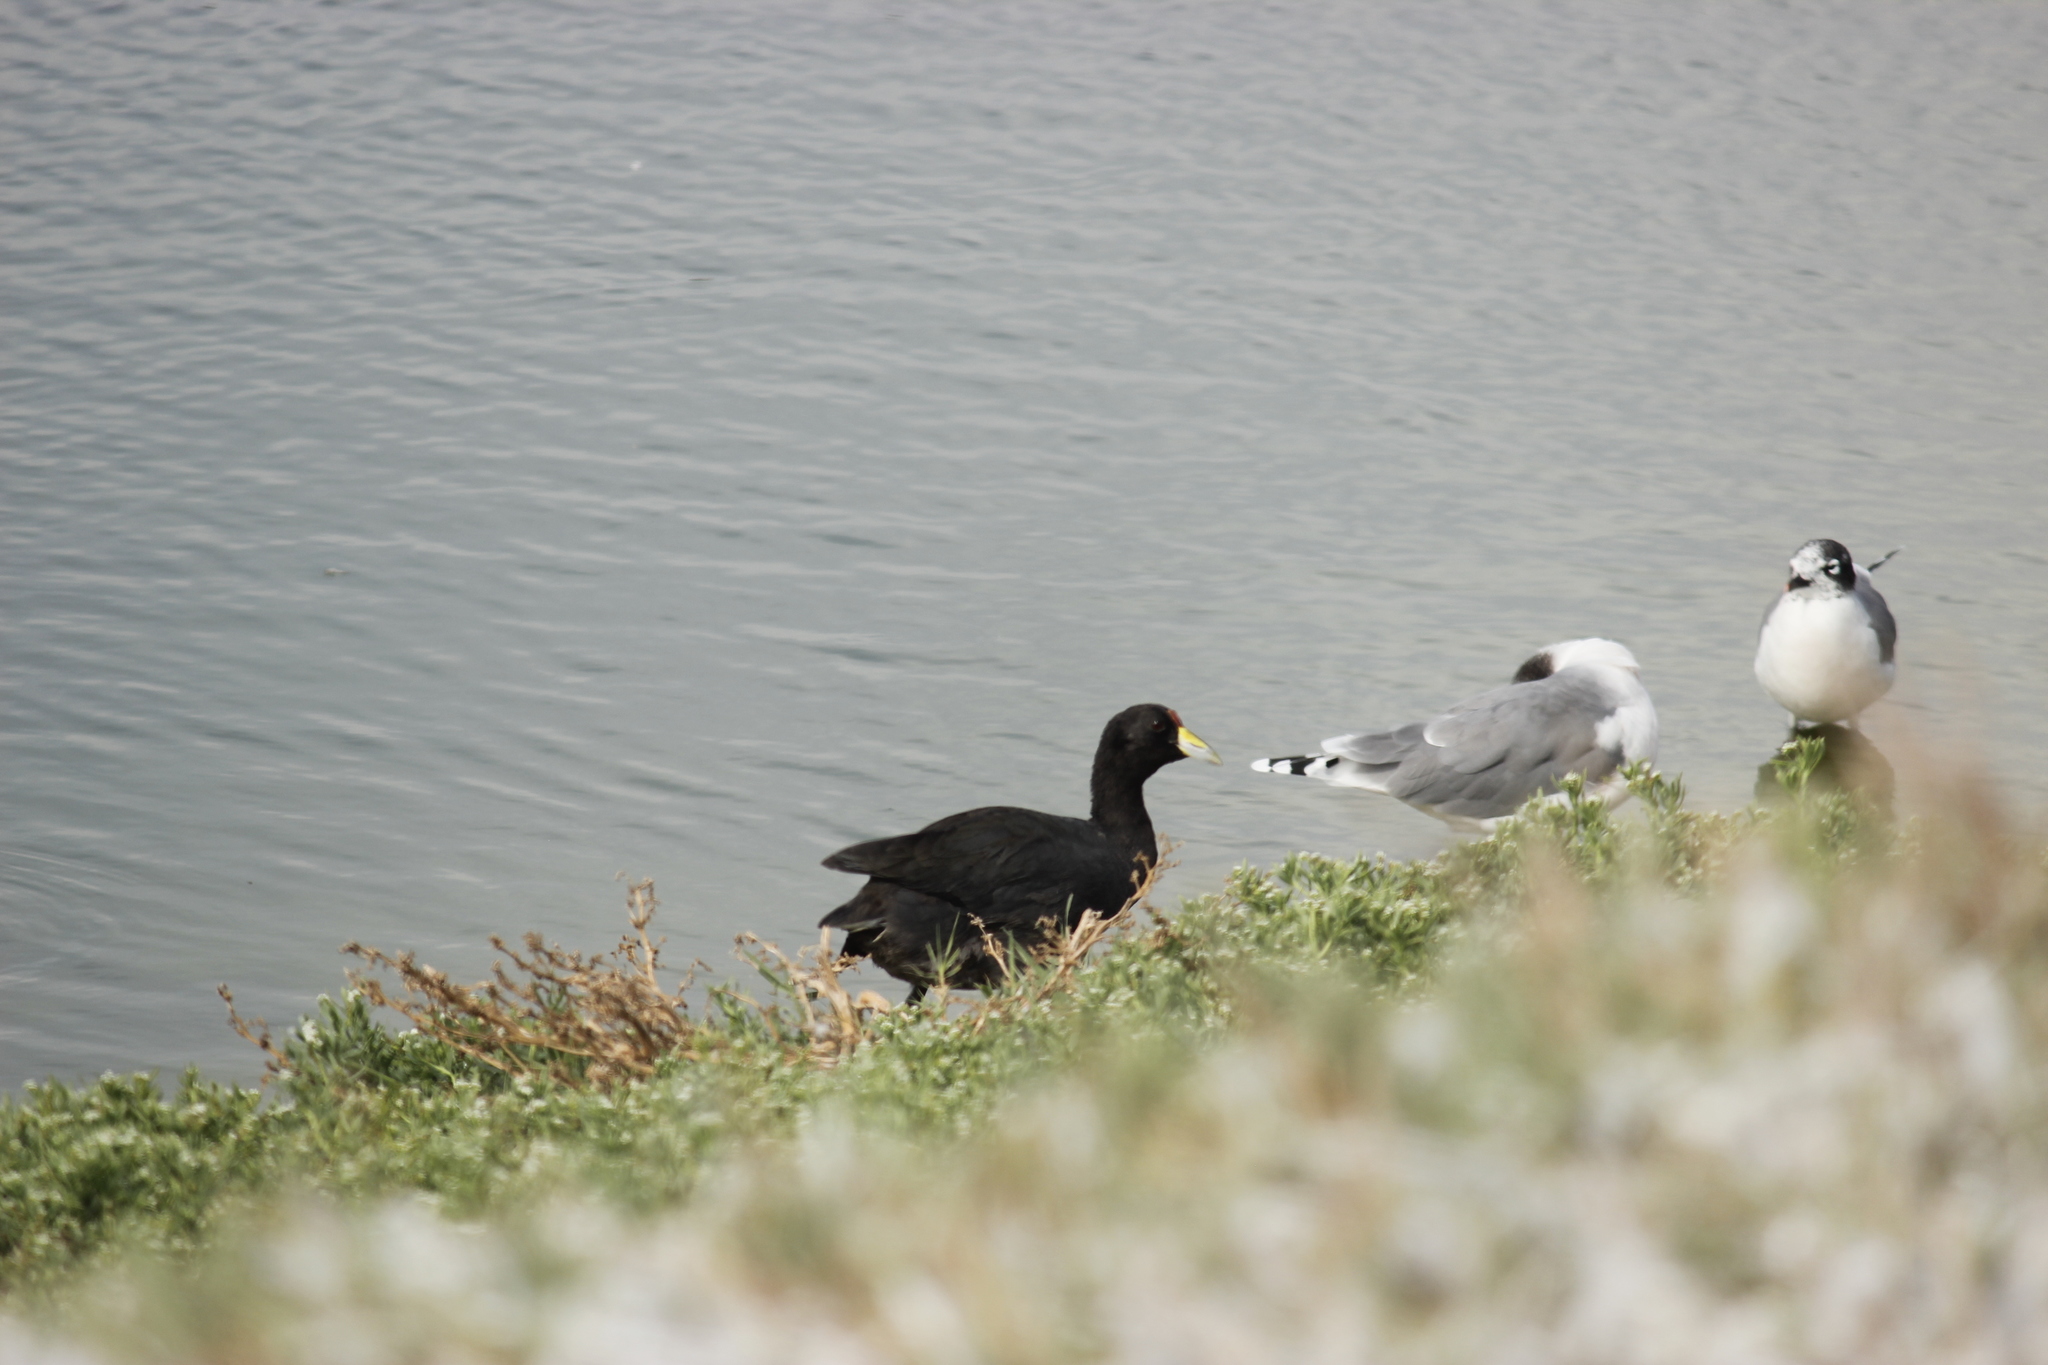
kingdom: Animalia
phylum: Chordata
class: Aves
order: Gruiformes
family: Rallidae
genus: Fulica
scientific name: Fulica ardesiaca
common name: Andean coot
